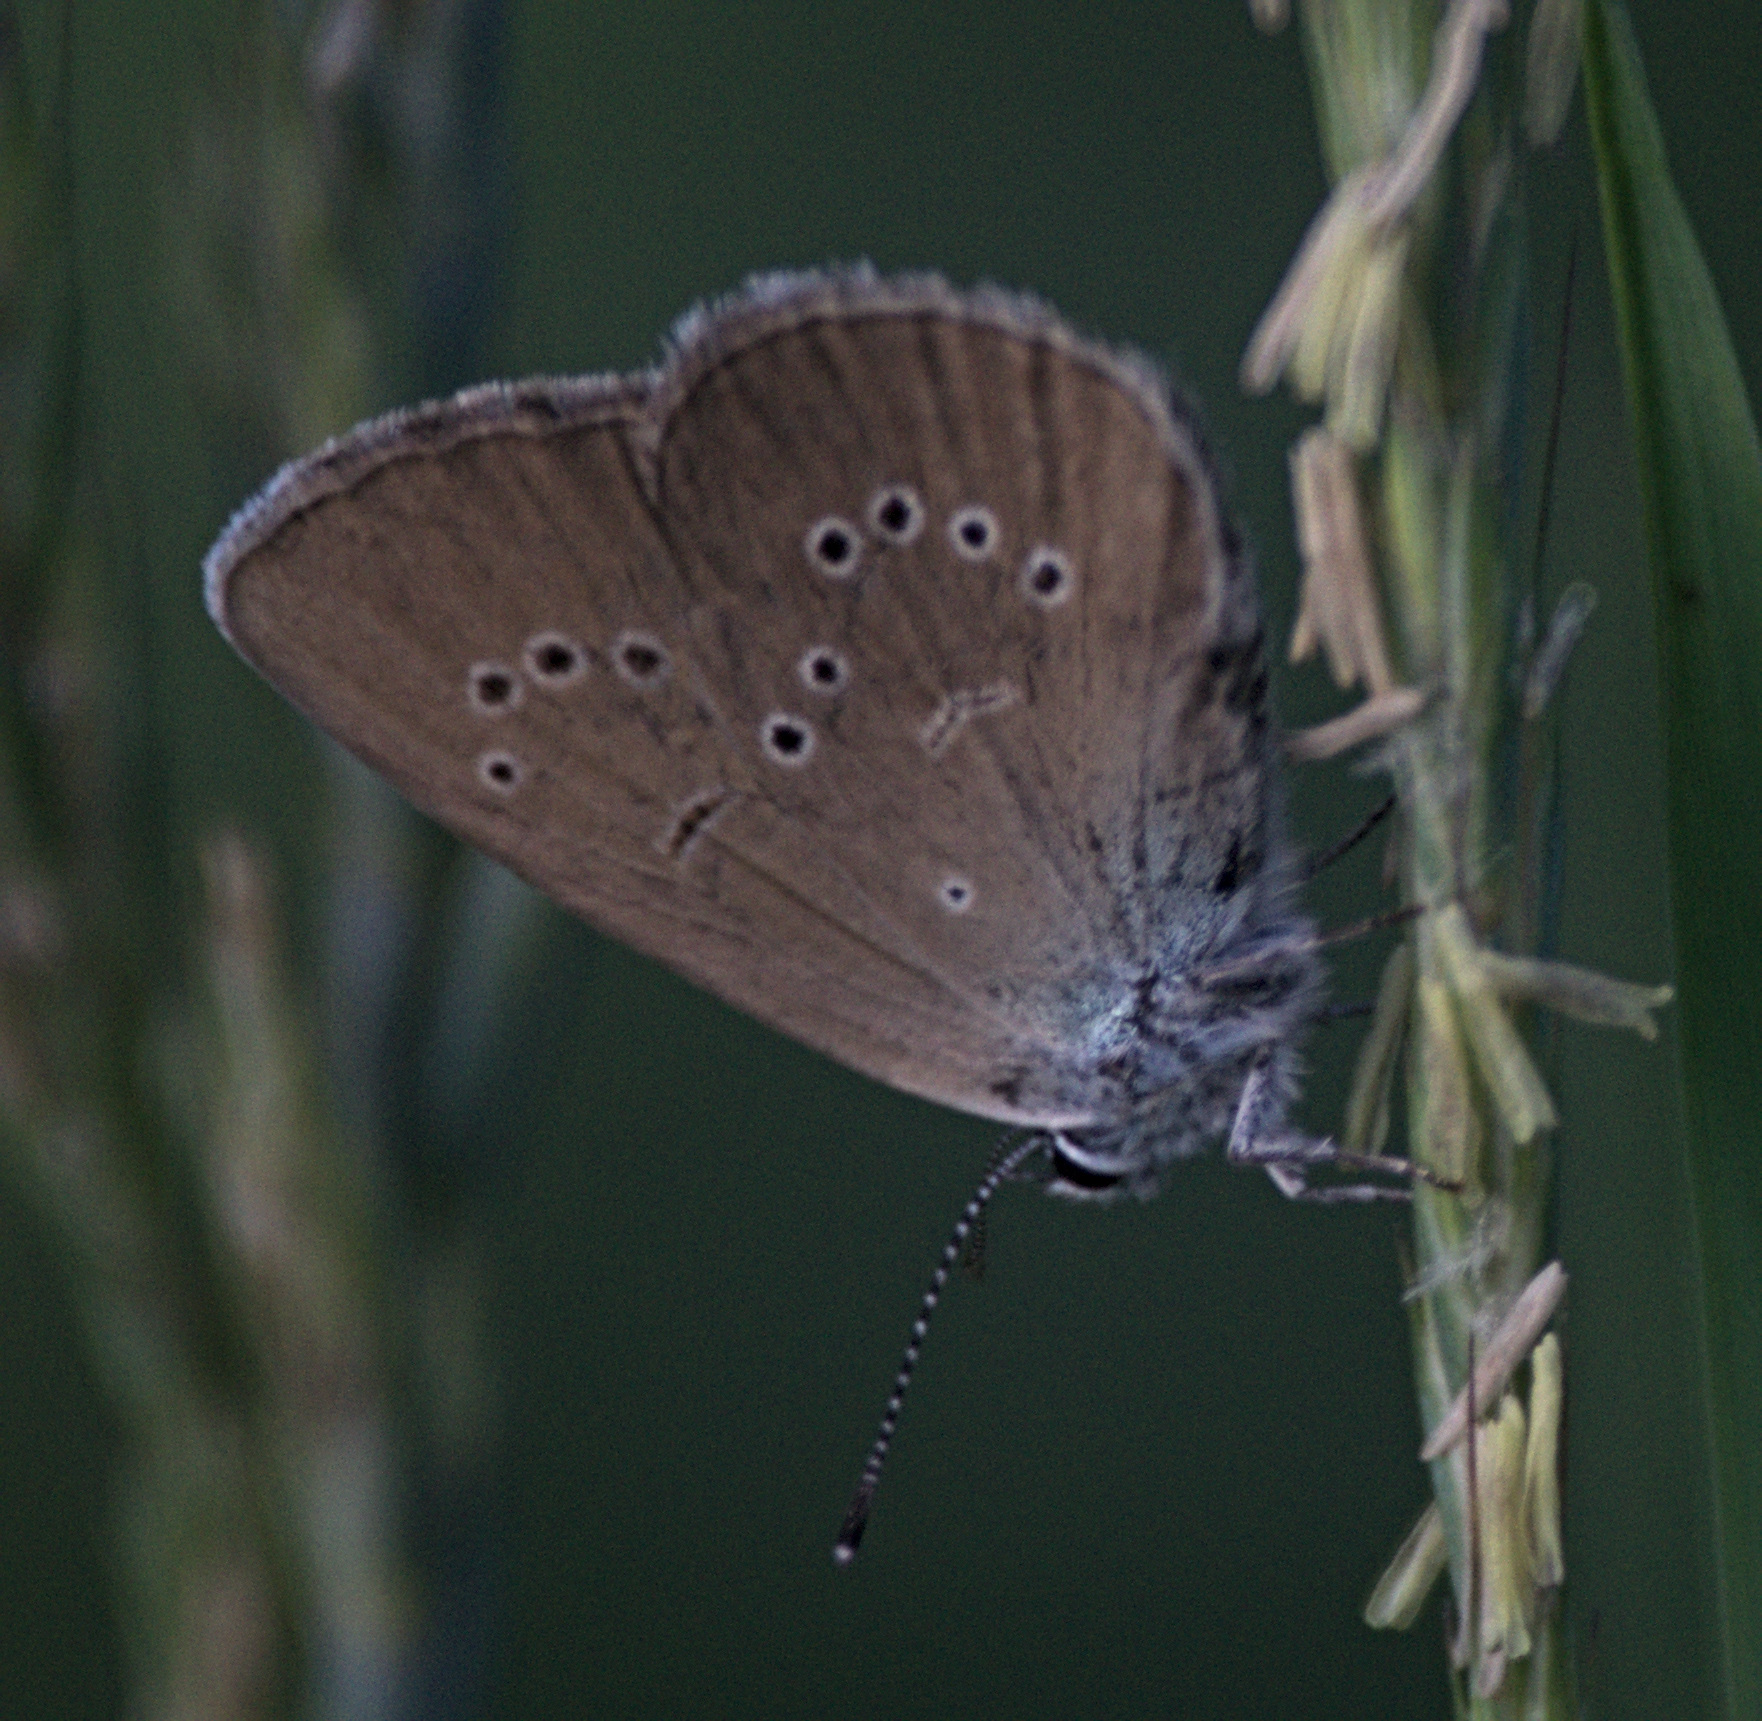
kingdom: Animalia
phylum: Arthropoda
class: Insecta
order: Lepidoptera
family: Lycaenidae
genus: Cyaniris
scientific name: Cyaniris semiargus
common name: Mazarine blue
